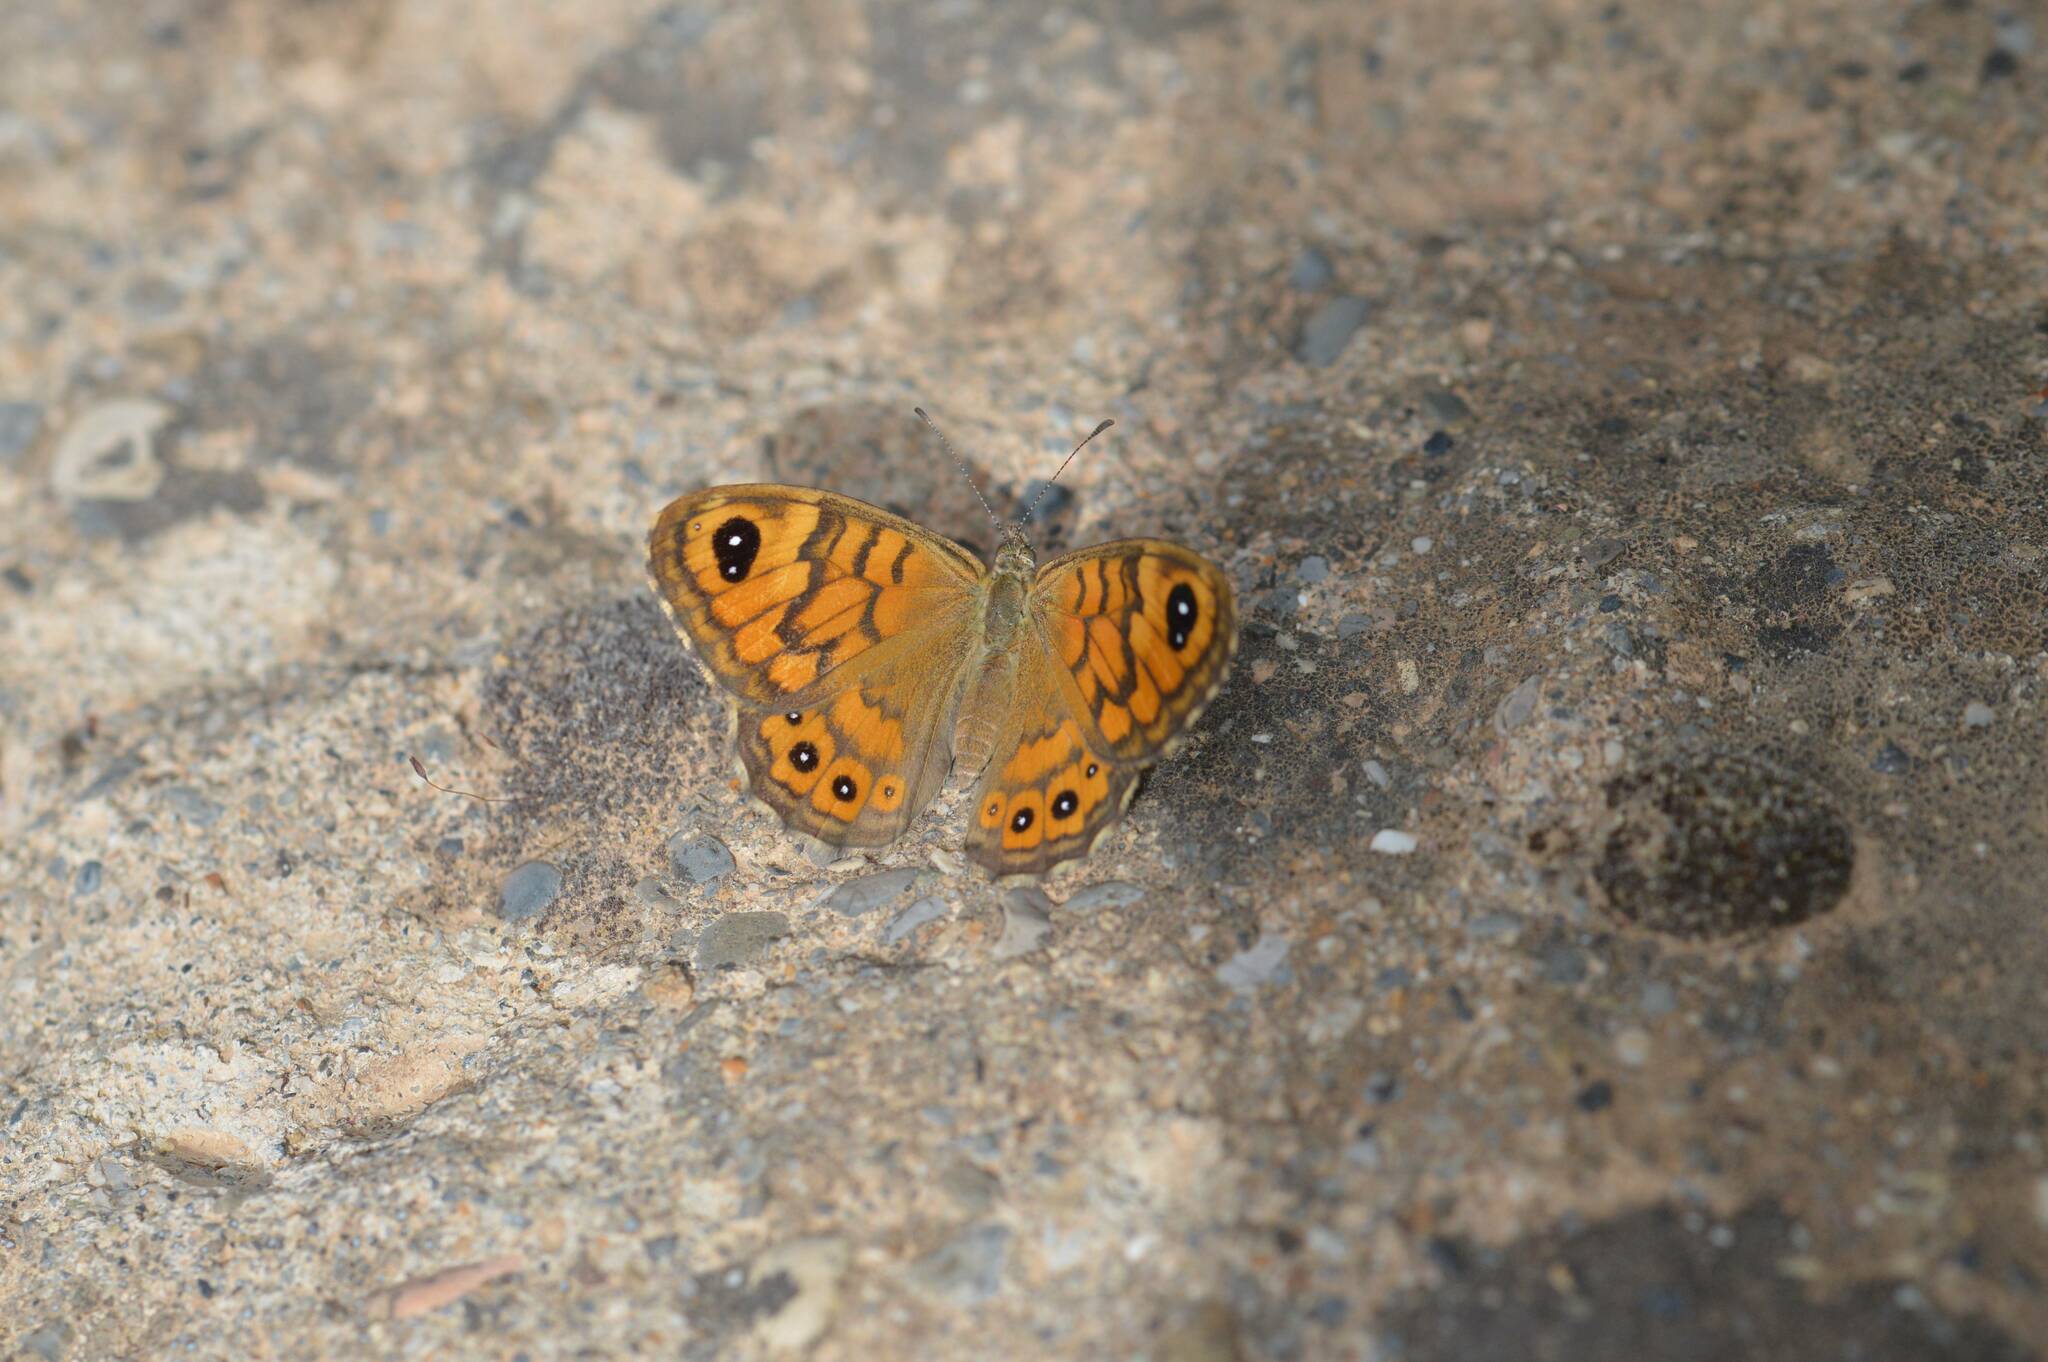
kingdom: Animalia
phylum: Arthropoda
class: Insecta
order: Lepidoptera
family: Nymphalidae
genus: Pararge
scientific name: Pararge Lasiommata megera
